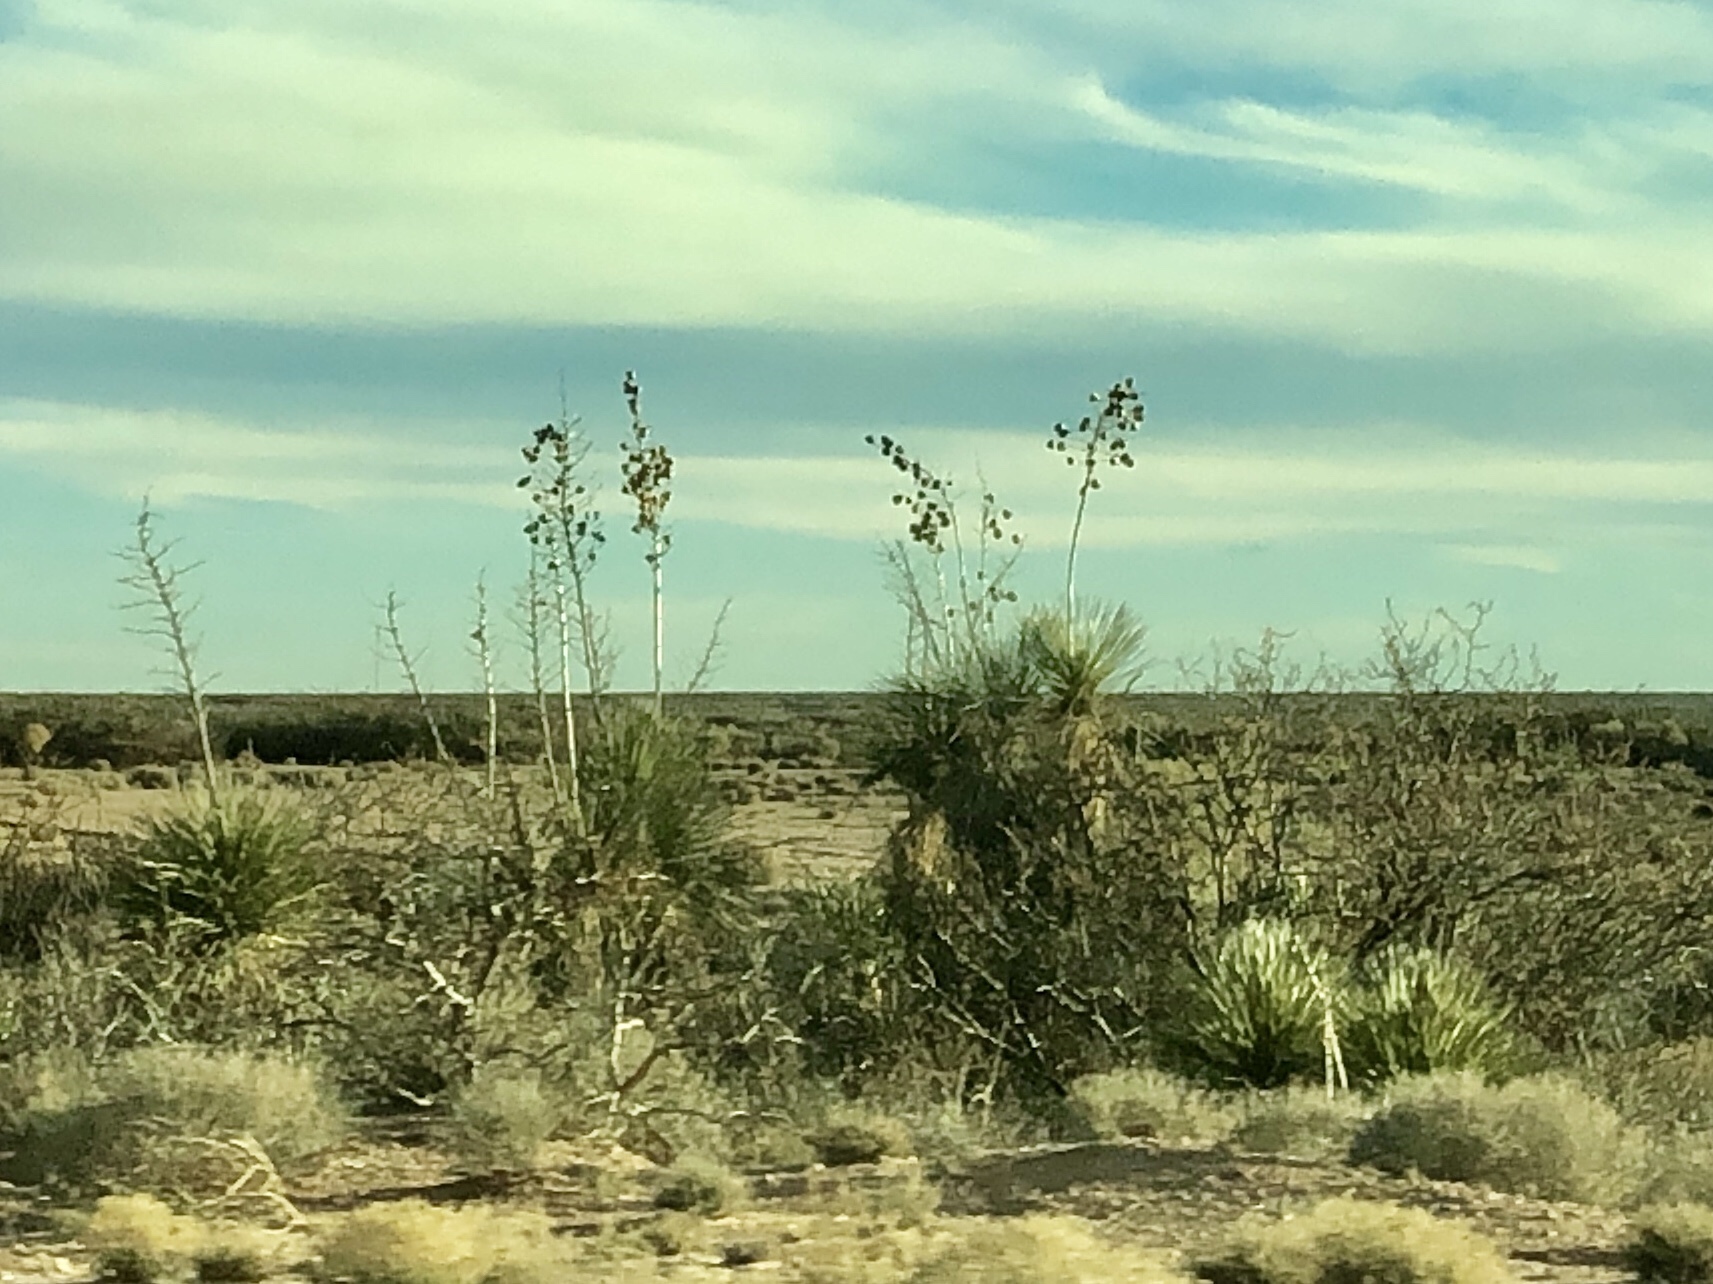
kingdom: Plantae
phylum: Tracheophyta
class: Liliopsida
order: Asparagales
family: Asparagaceae
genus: Yucca
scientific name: Yucca elata
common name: Palmella
